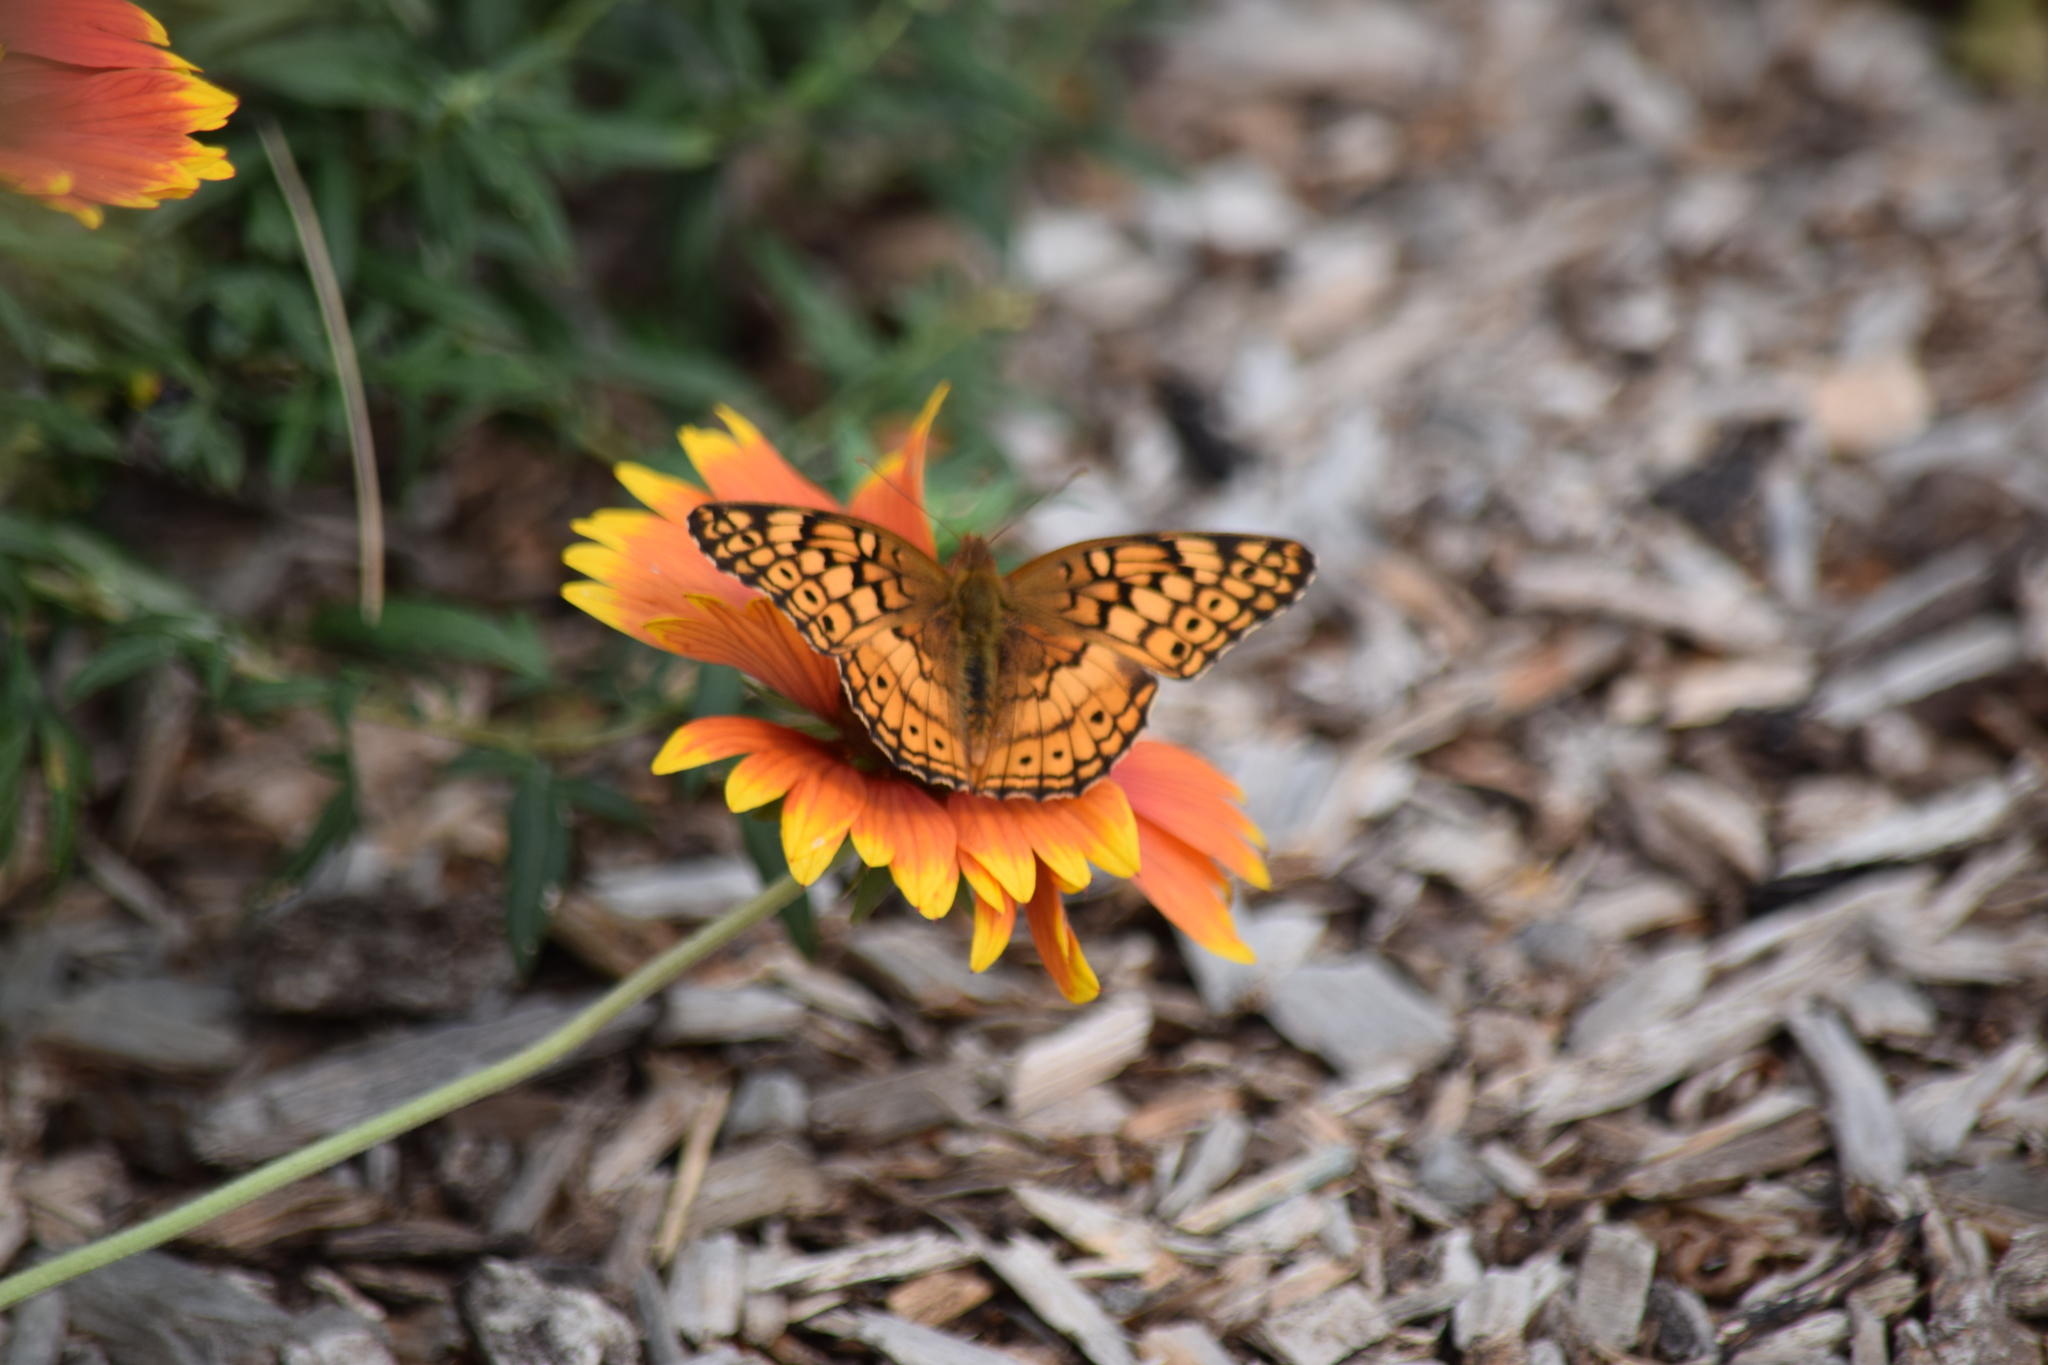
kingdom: Animalia
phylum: Arthropoda
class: Insecta
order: Lepidoptera
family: Nymphalidae
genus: Euptoieta
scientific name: Euptoieta claudia
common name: Variegated fritillary
